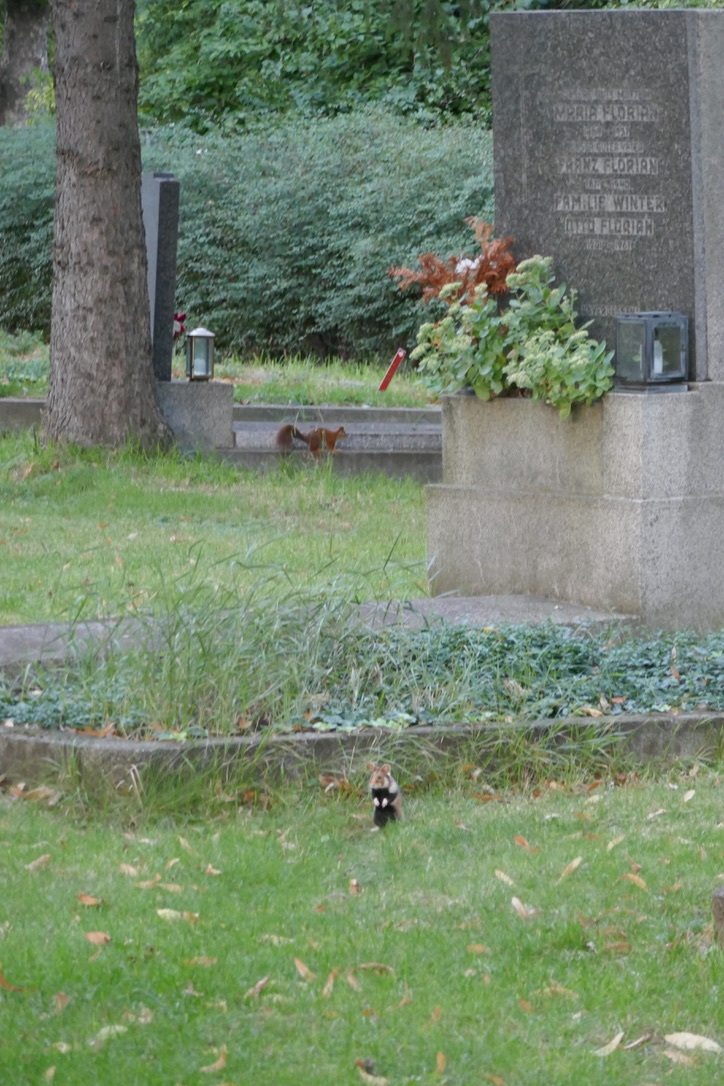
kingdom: Animalia
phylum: Chordata
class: Mammalia
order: Rodentia
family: Sciuridae
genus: Sciurus
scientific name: Sciurus vulgaris
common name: Eurasian red squirrel
